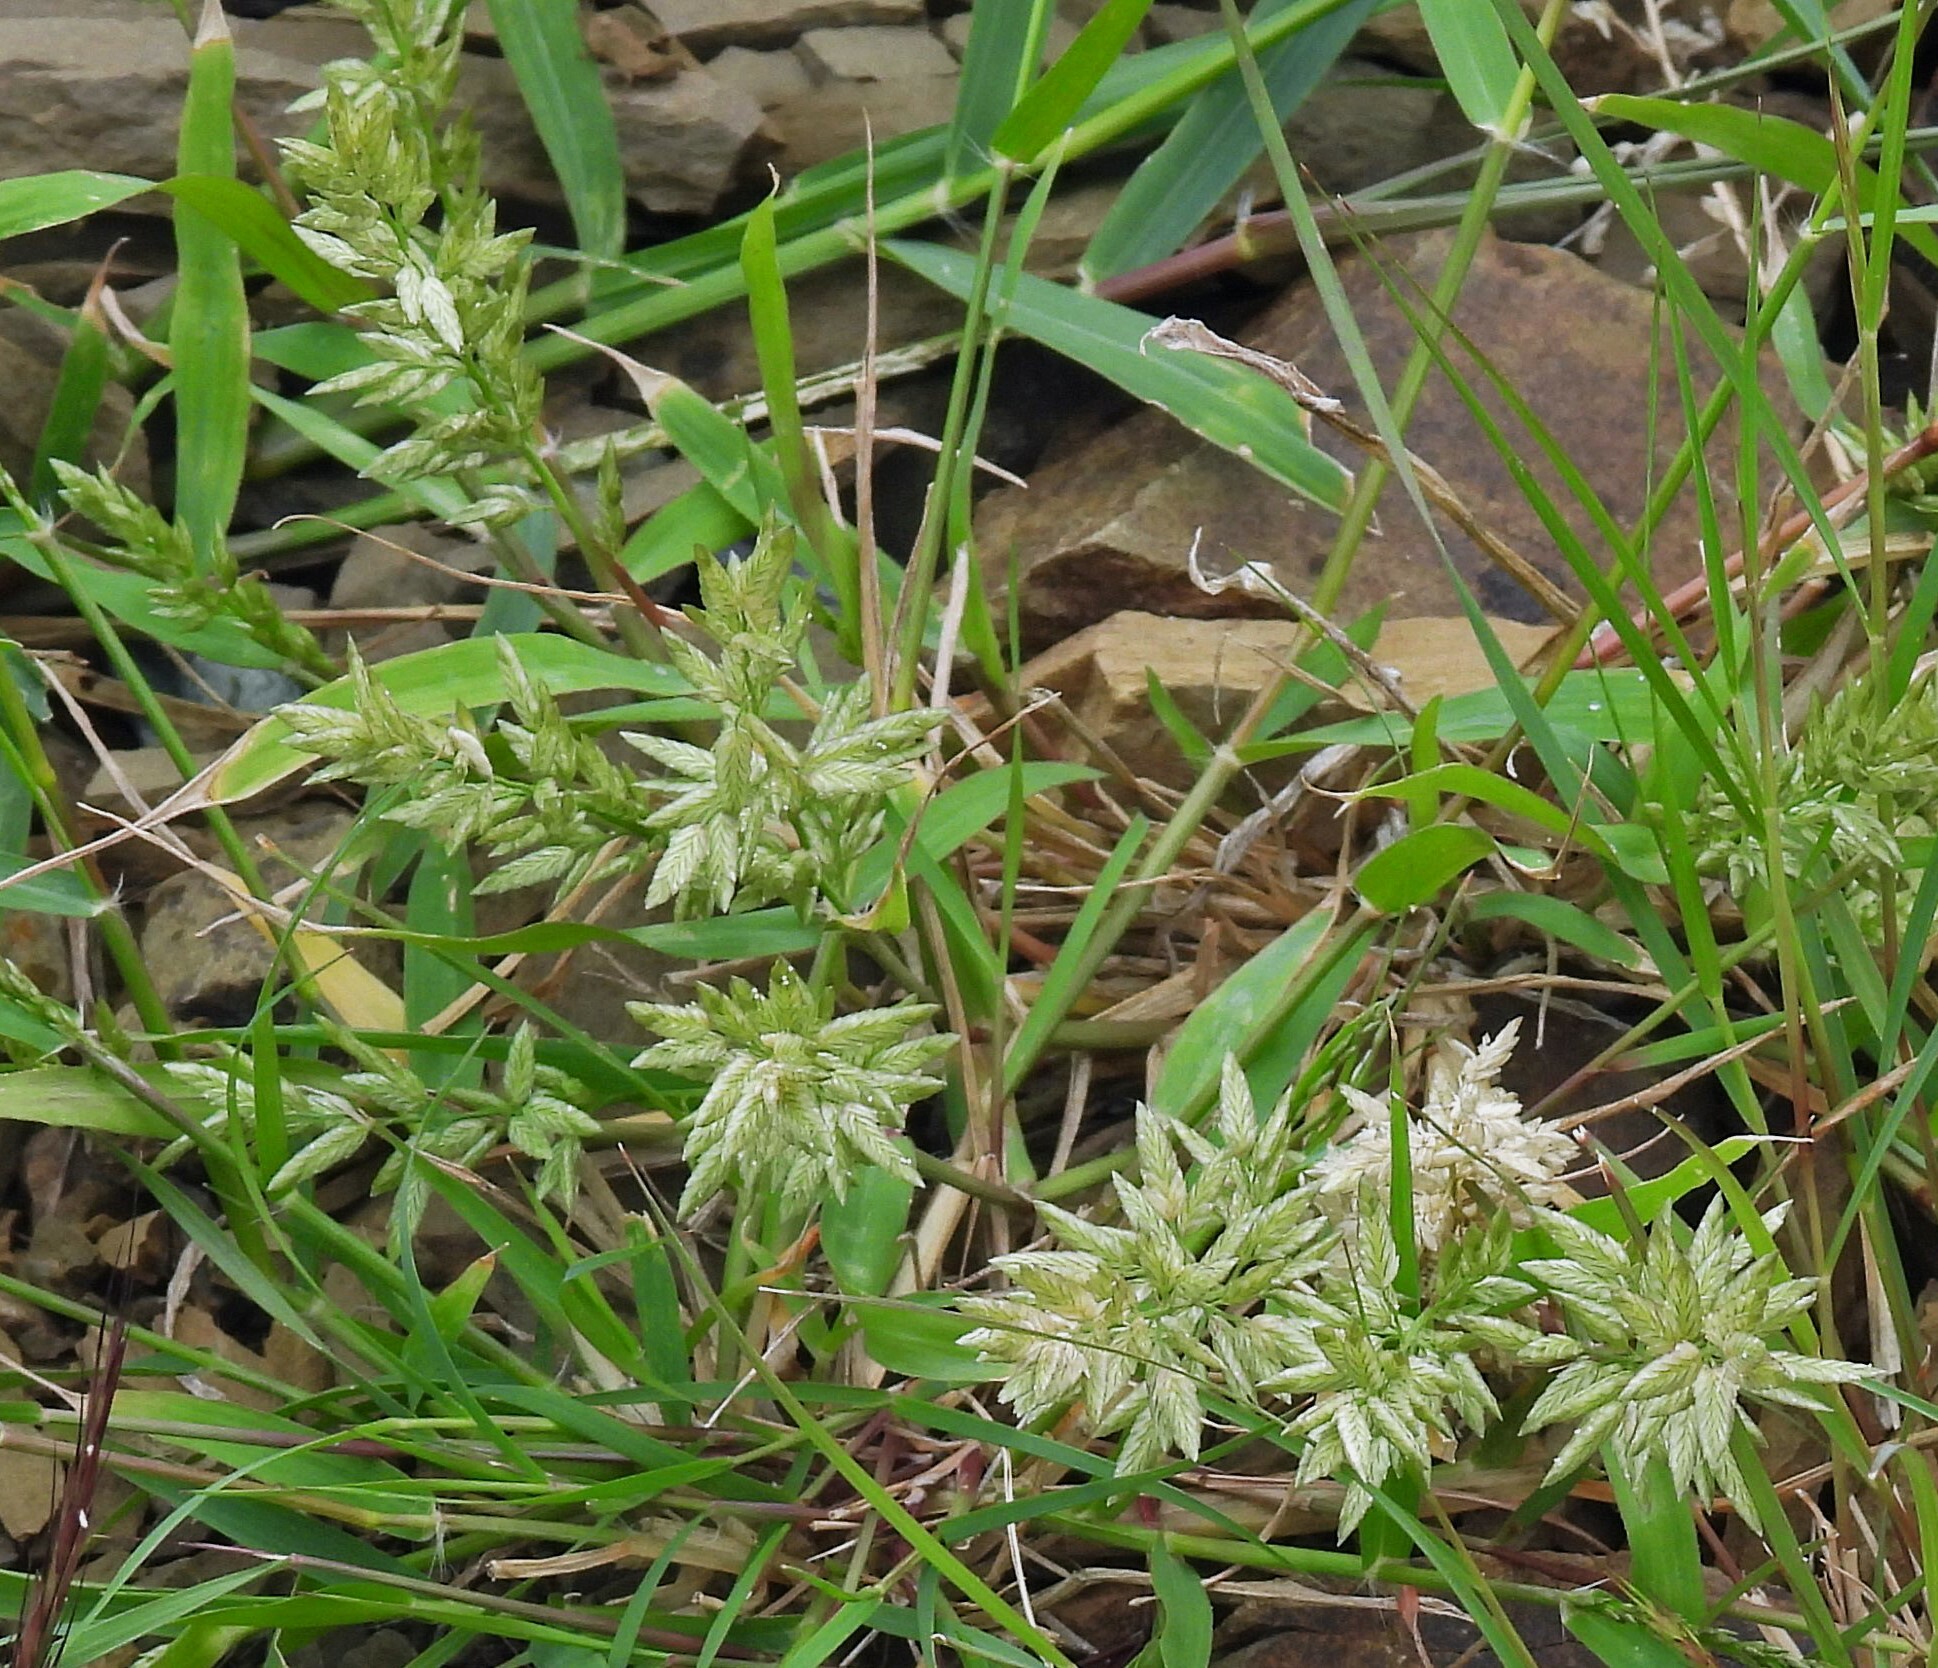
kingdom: Plantae
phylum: Tracheophyta
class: Liliopsida
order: Poales
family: Poaceae
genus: Eragrostis
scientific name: Eragrostis cilianensis
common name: Stinkgrass
